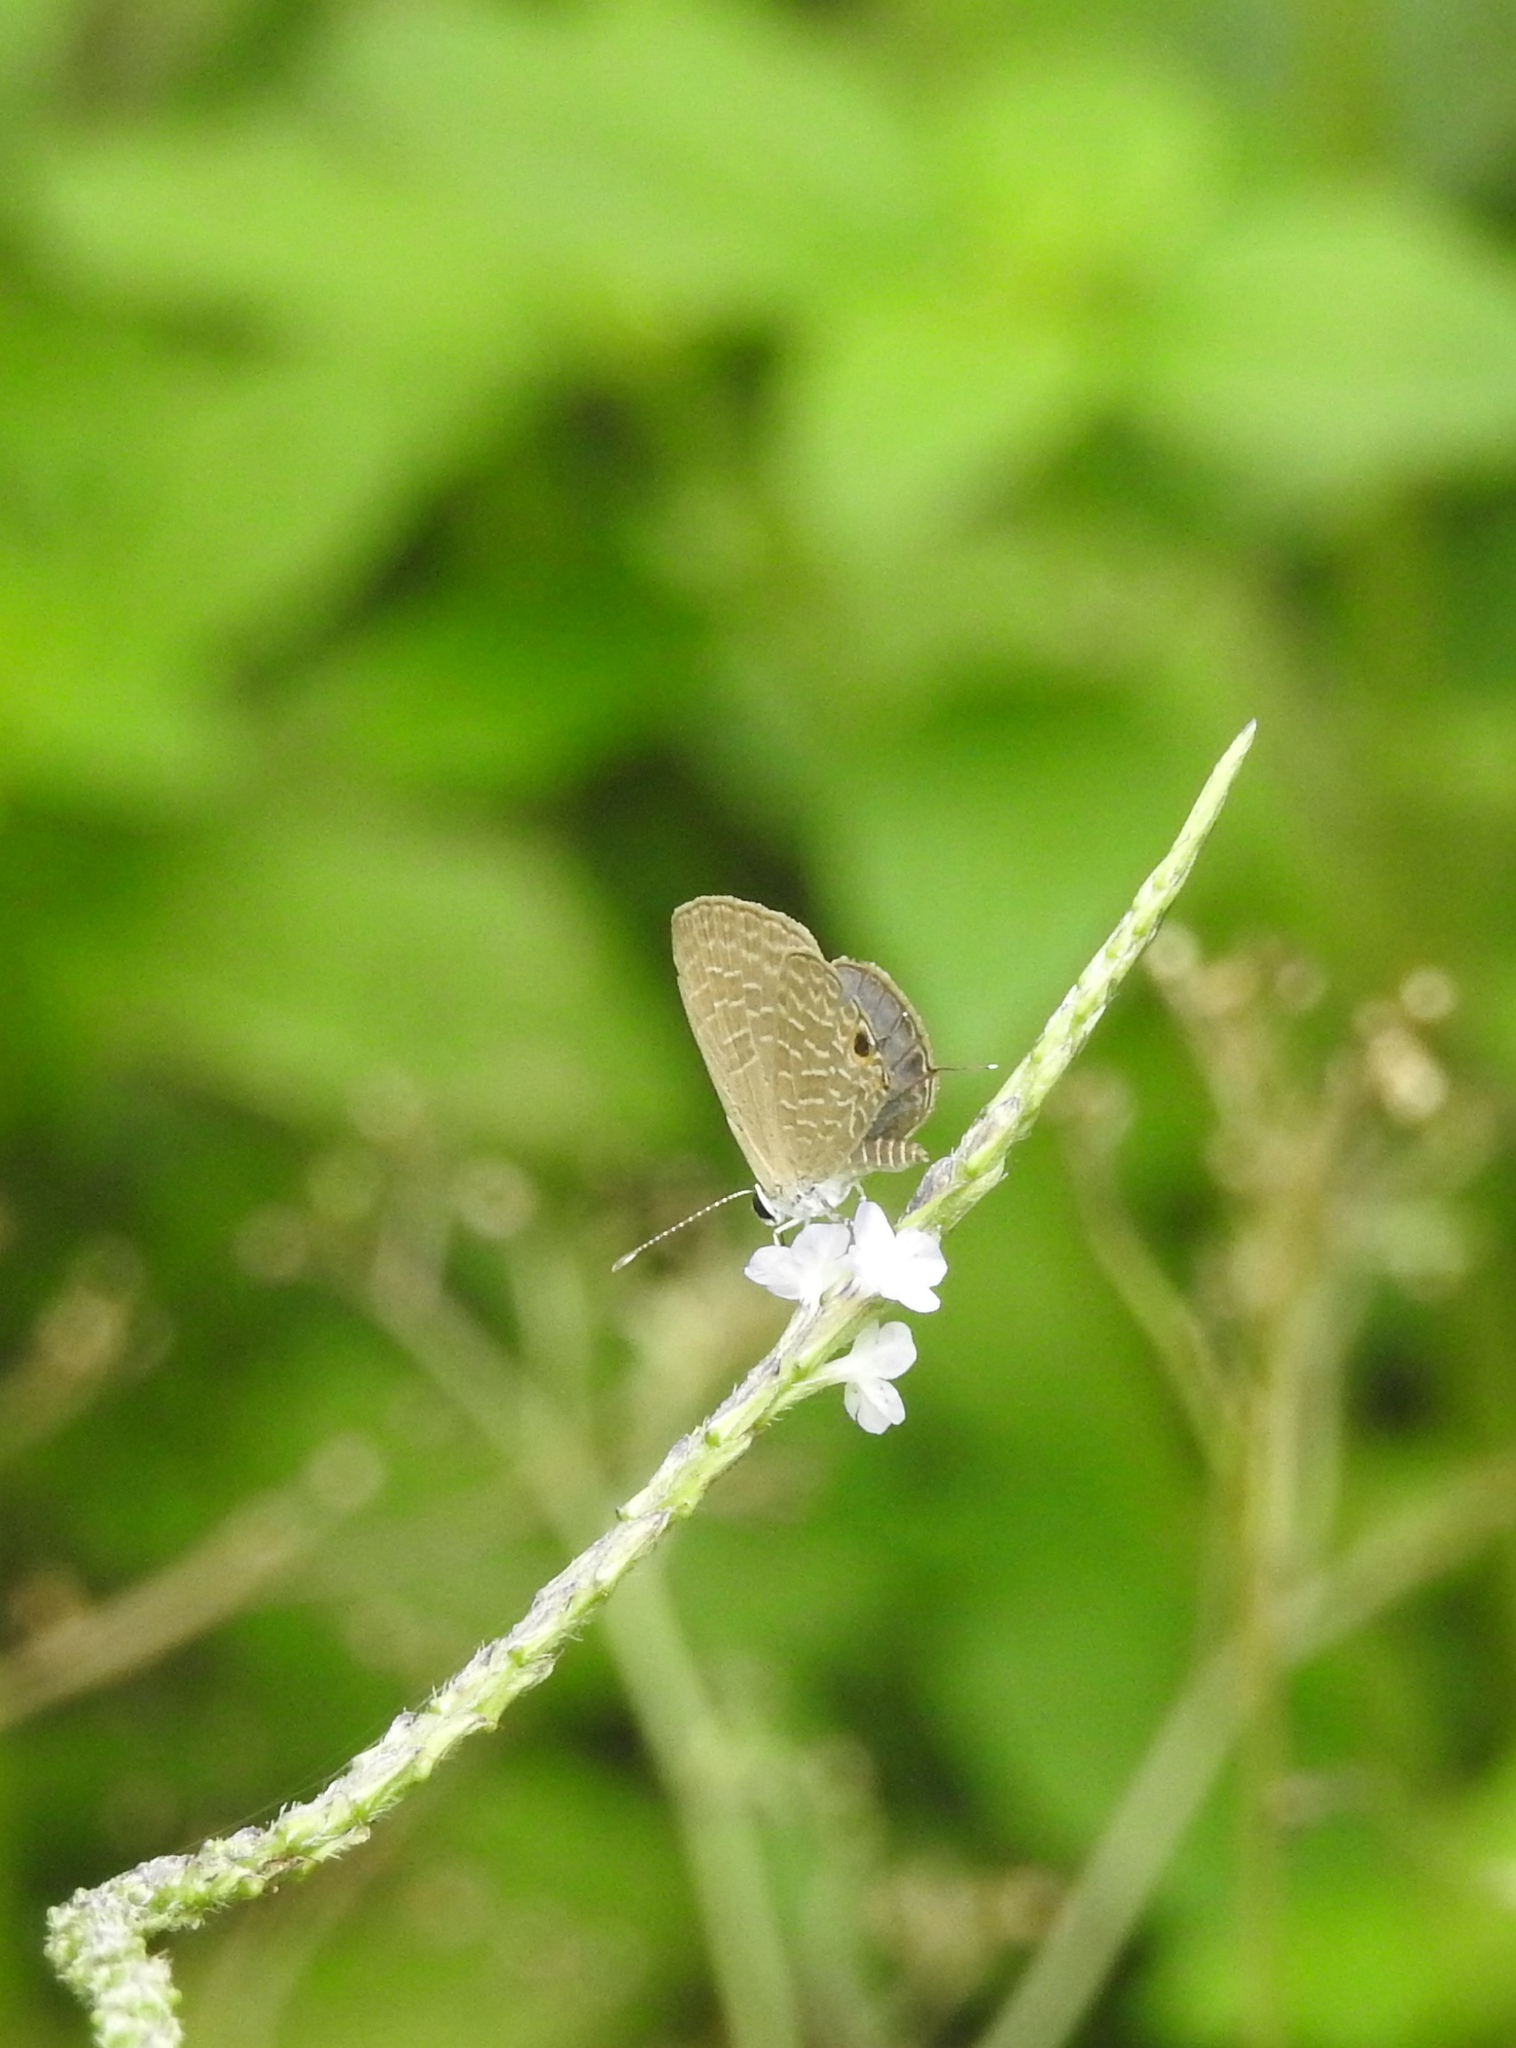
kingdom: Animalia
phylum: Arthropoda
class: Insecta
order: Lepidoptera
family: Lycaenidae
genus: Jamides
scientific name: Jamides bochus
